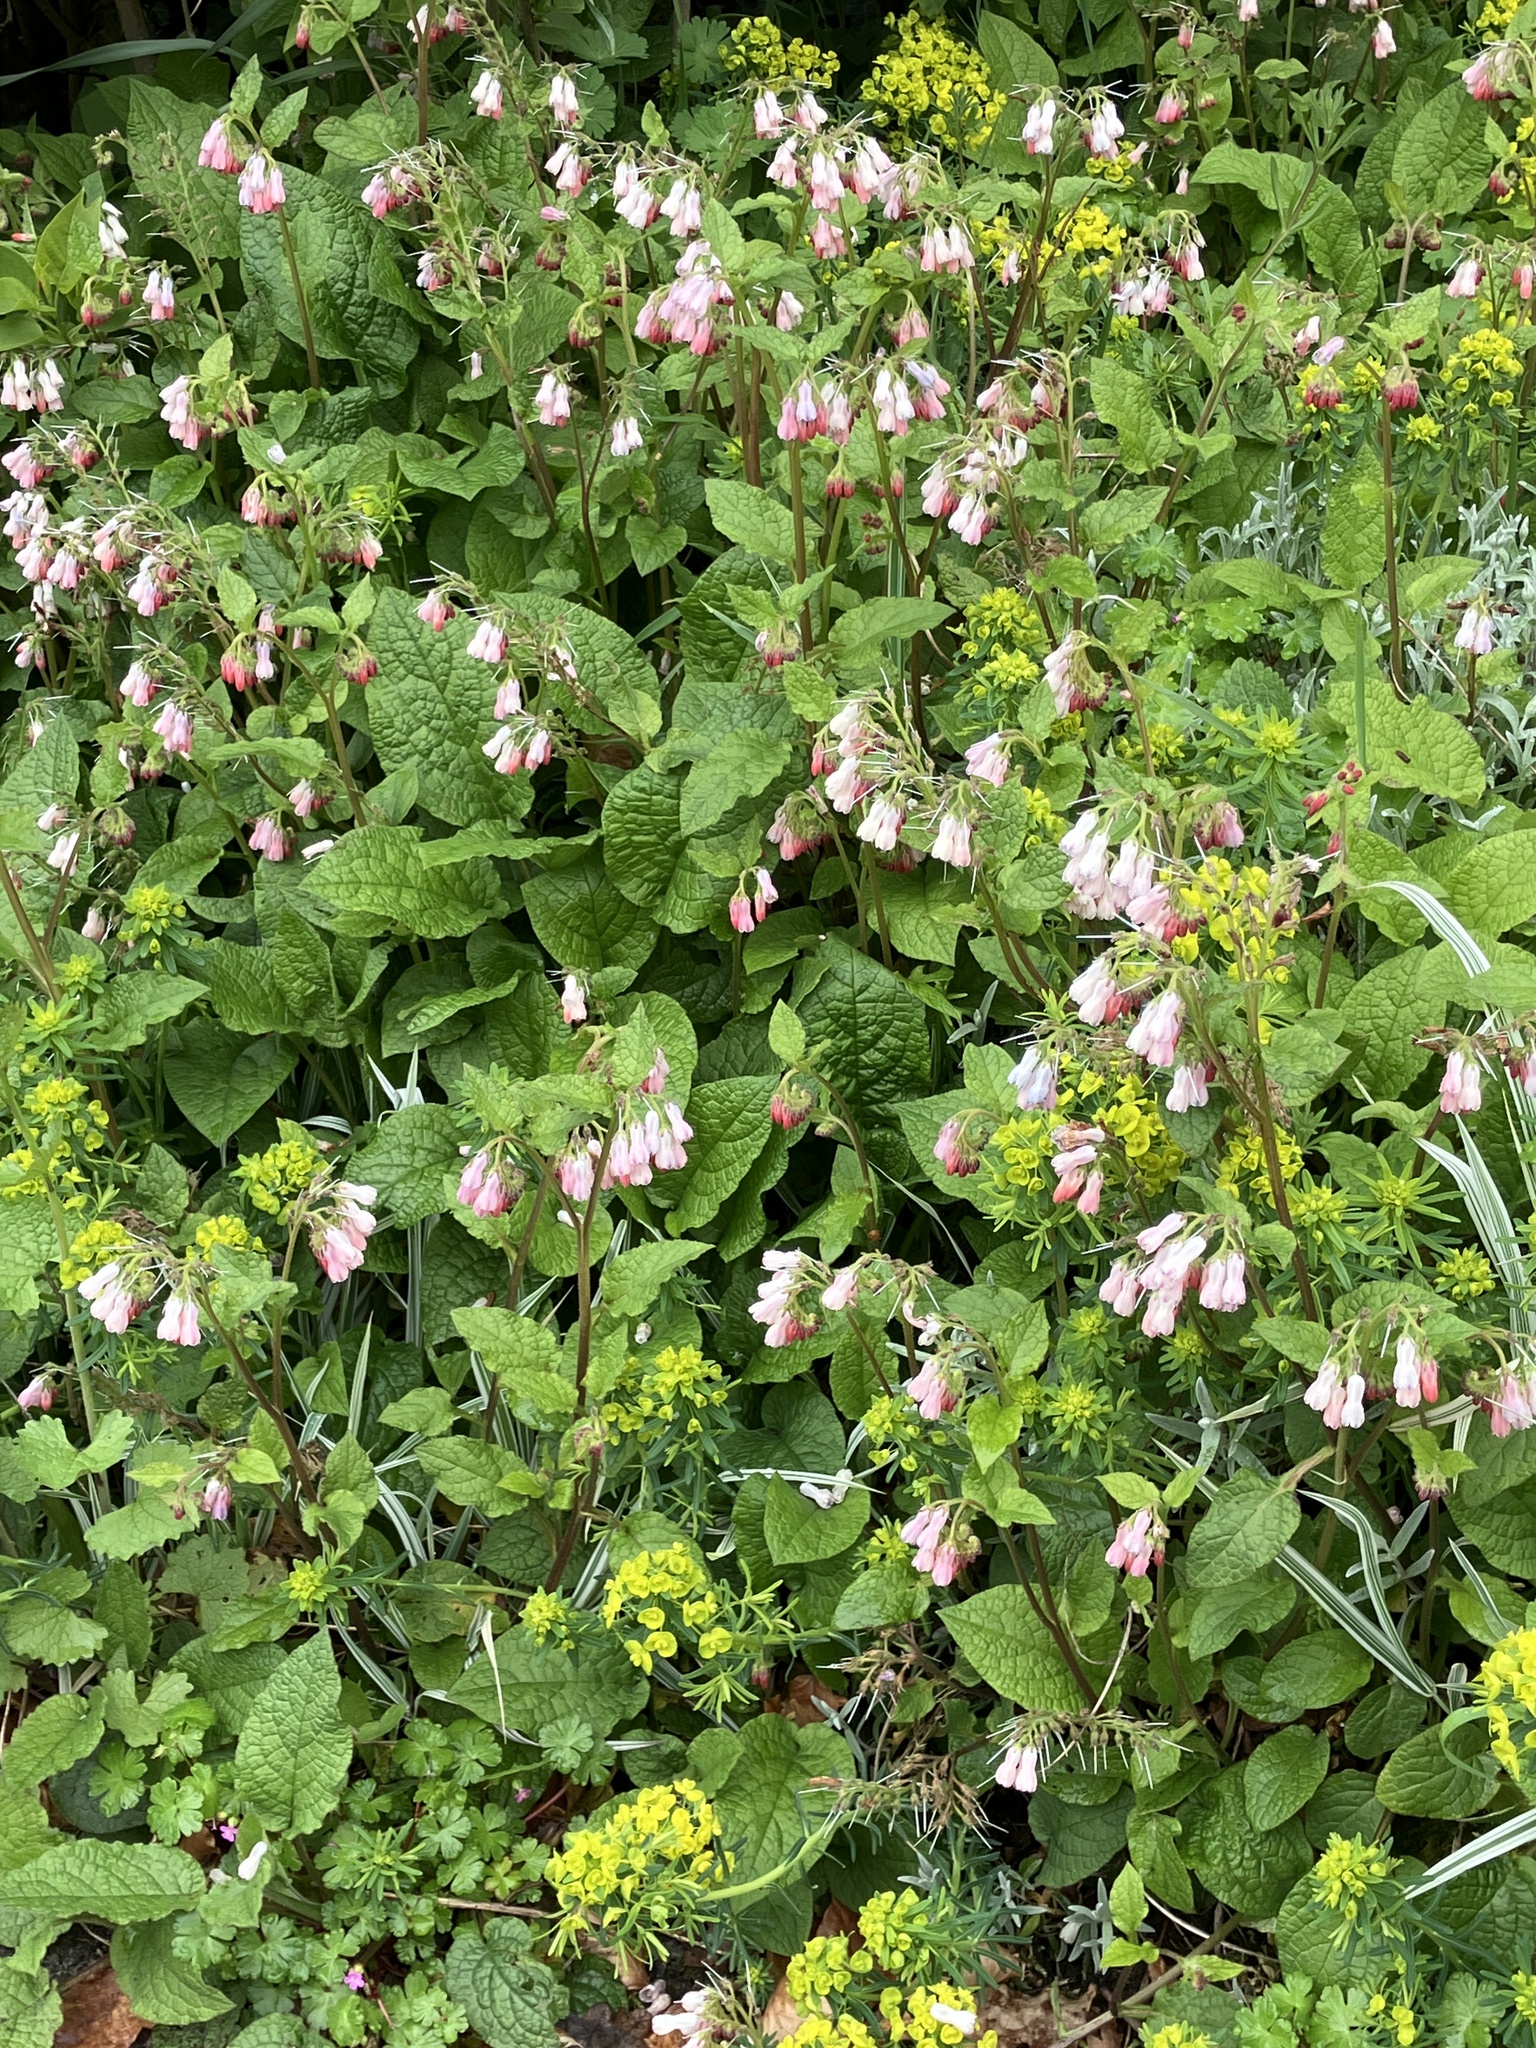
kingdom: Plantae
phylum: Tracheophyta
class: Magnoliopsida
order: Boraginales
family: Boraginaceae
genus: Symphytum
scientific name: Symphytum hidcotense
